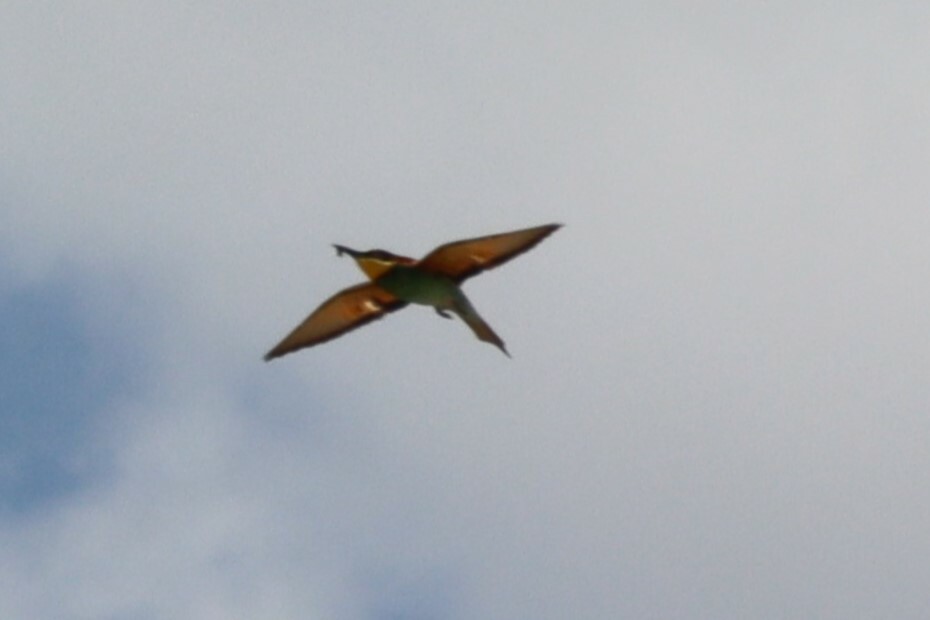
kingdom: Animalia
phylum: Chordata
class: Aves
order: Coraciiformes
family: Meropidae
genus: Merops
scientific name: Merops apiaster
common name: European bee-eater
